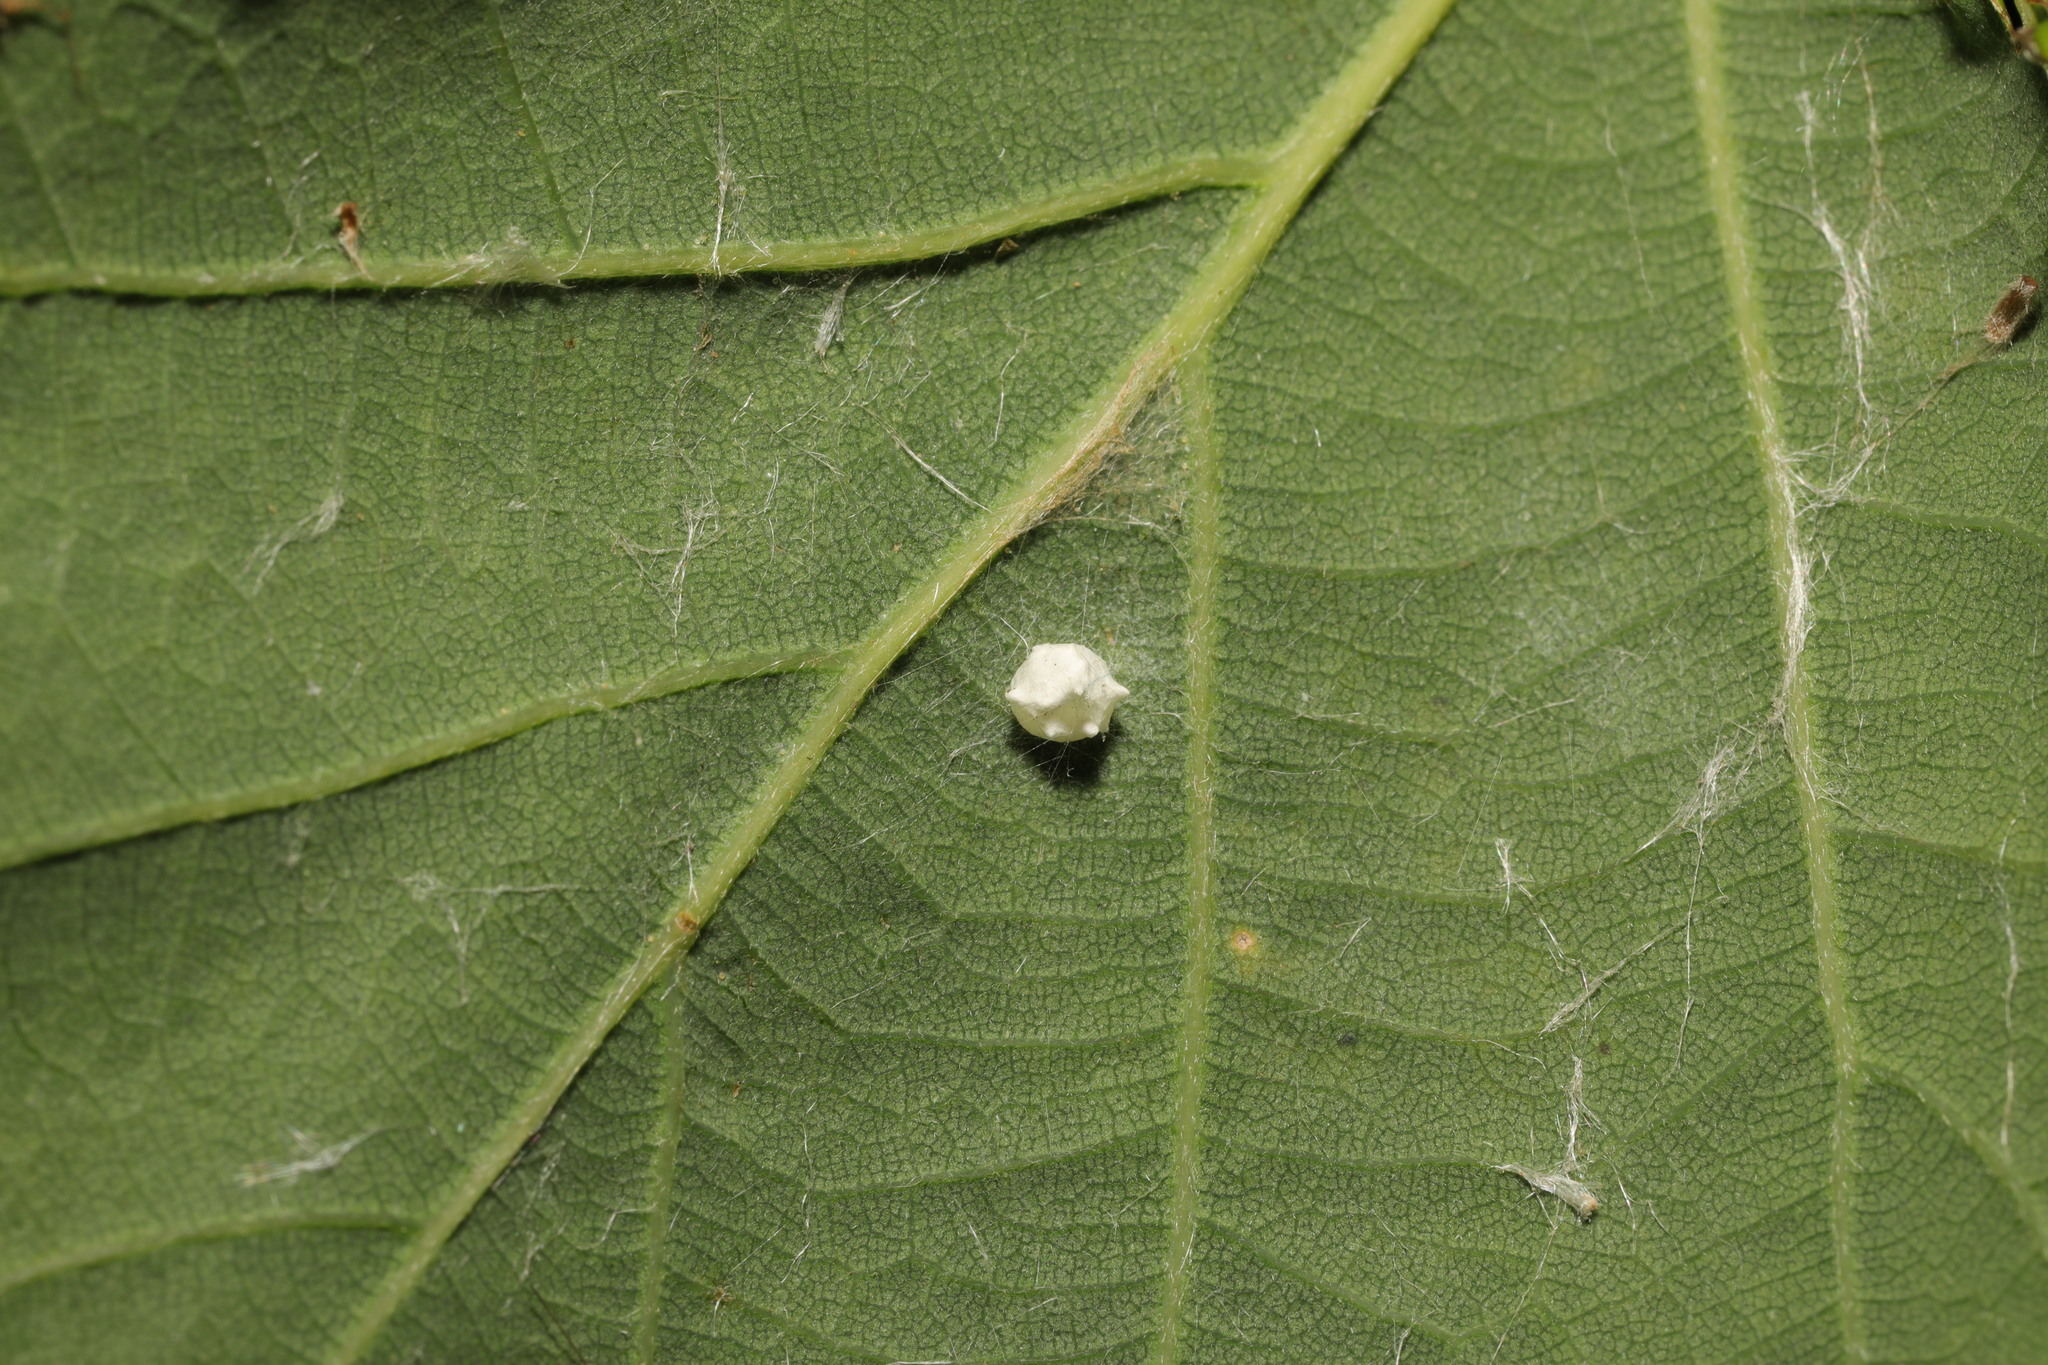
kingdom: Animalia
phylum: Arthropoda
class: Arachnida
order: Araneae
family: Theridiidae
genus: Paidiscura
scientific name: Paidiscura pallens
